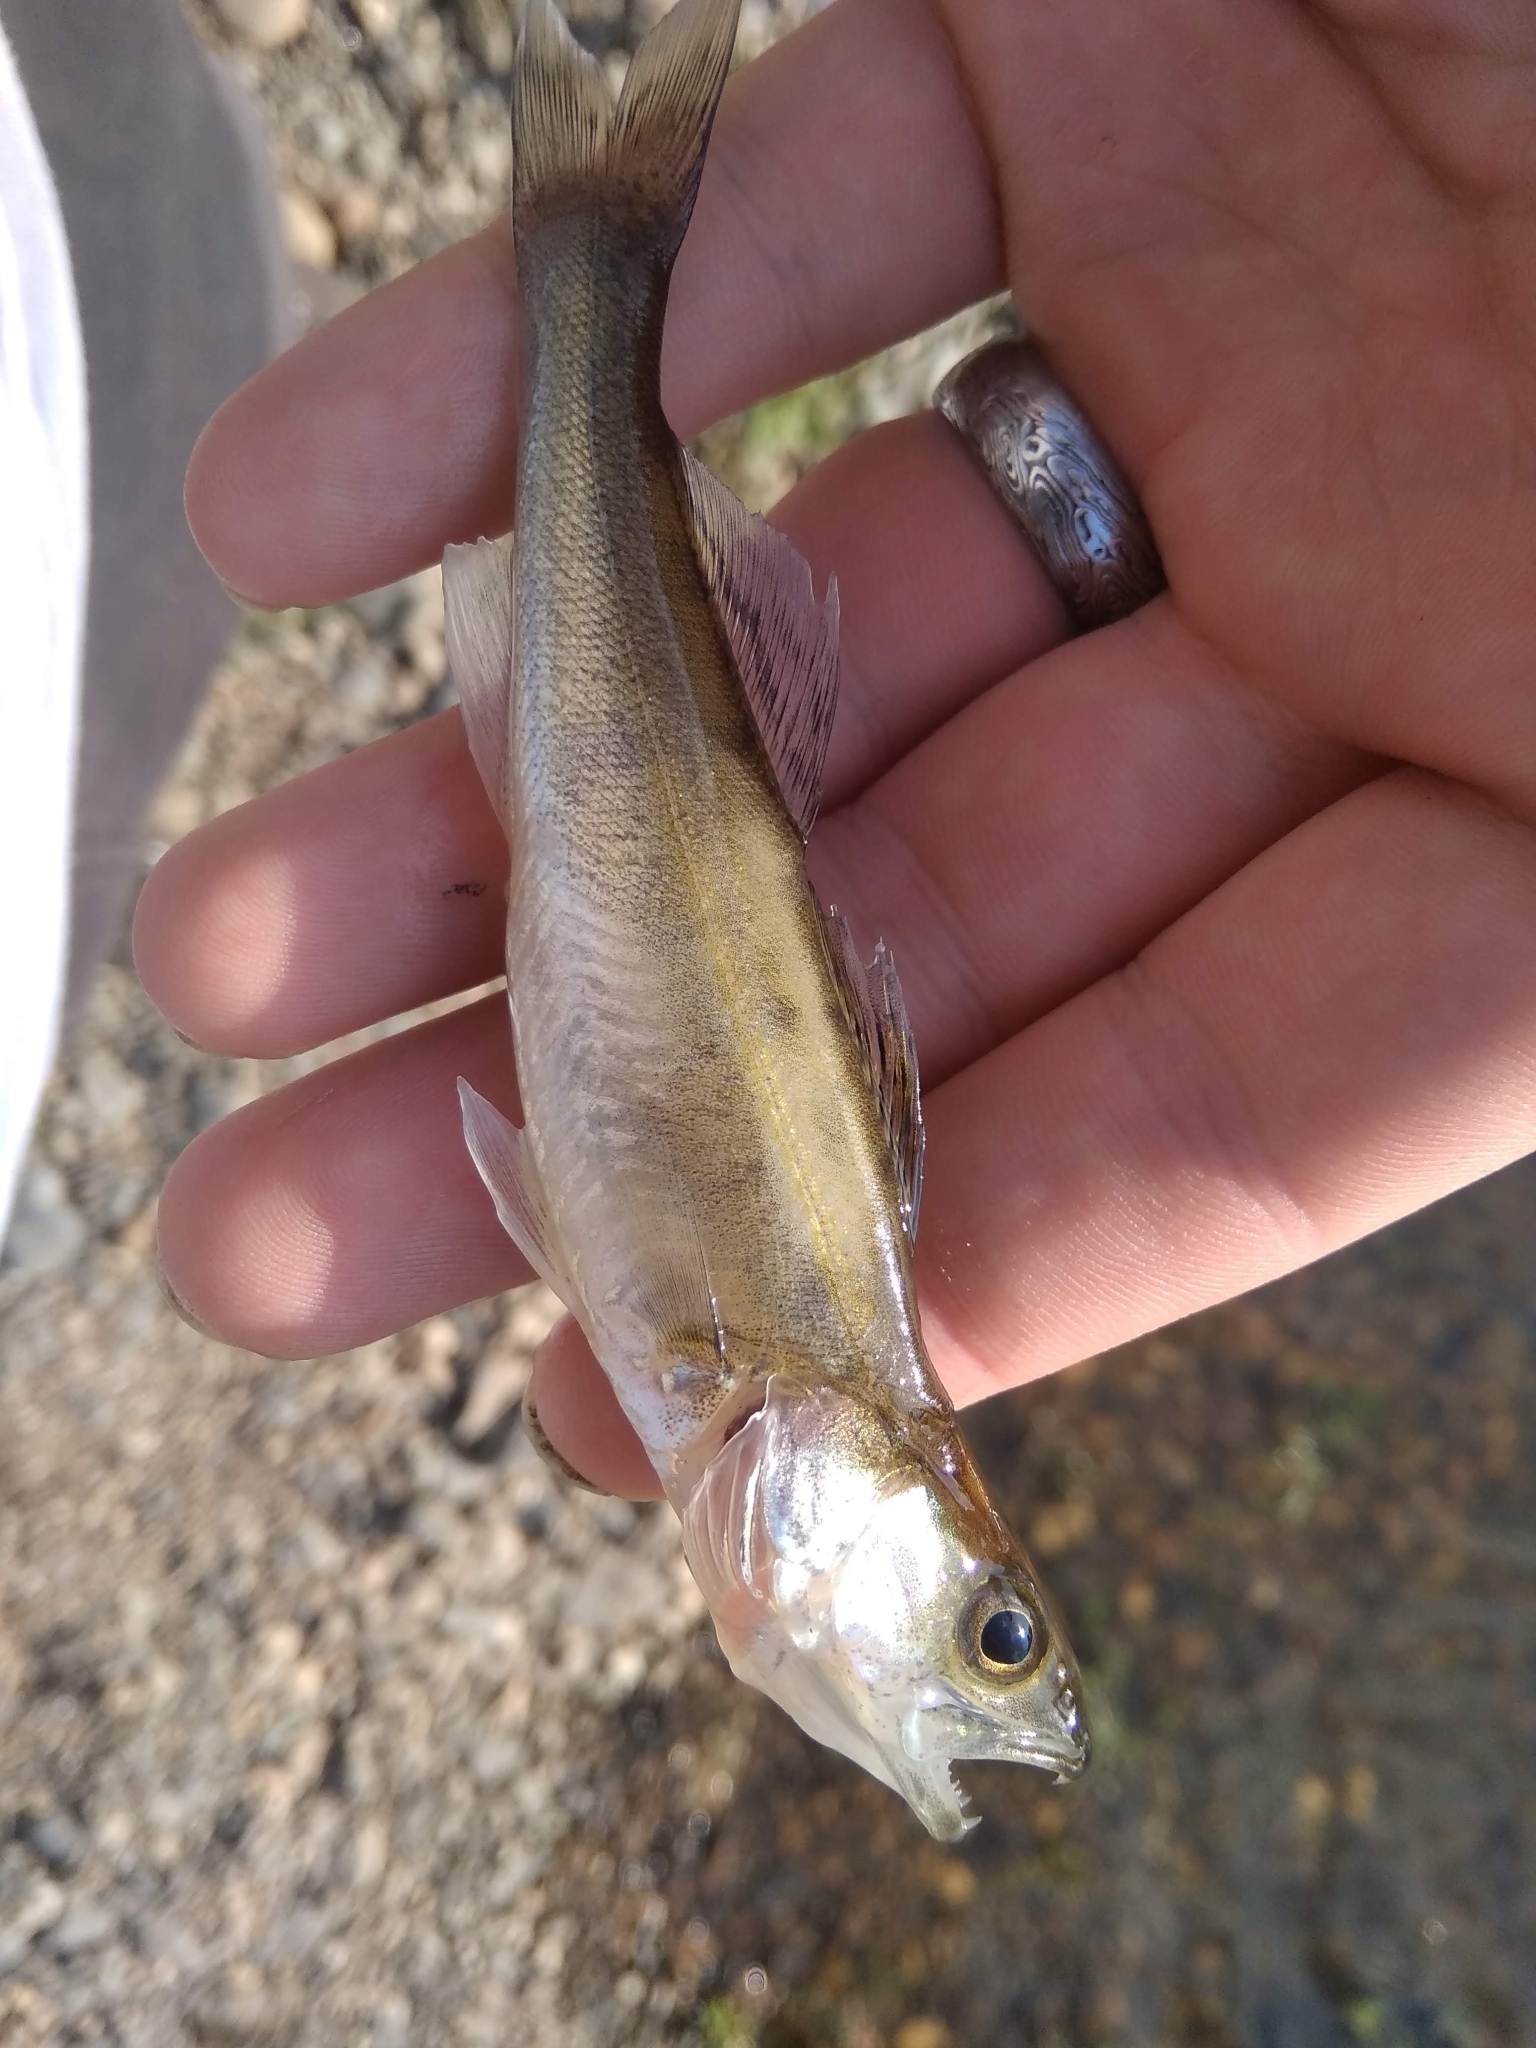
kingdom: Animalia
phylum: Chordata
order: Perciformes
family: Percidae
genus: Sander
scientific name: Sander lucioperca
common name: Pikeperch
